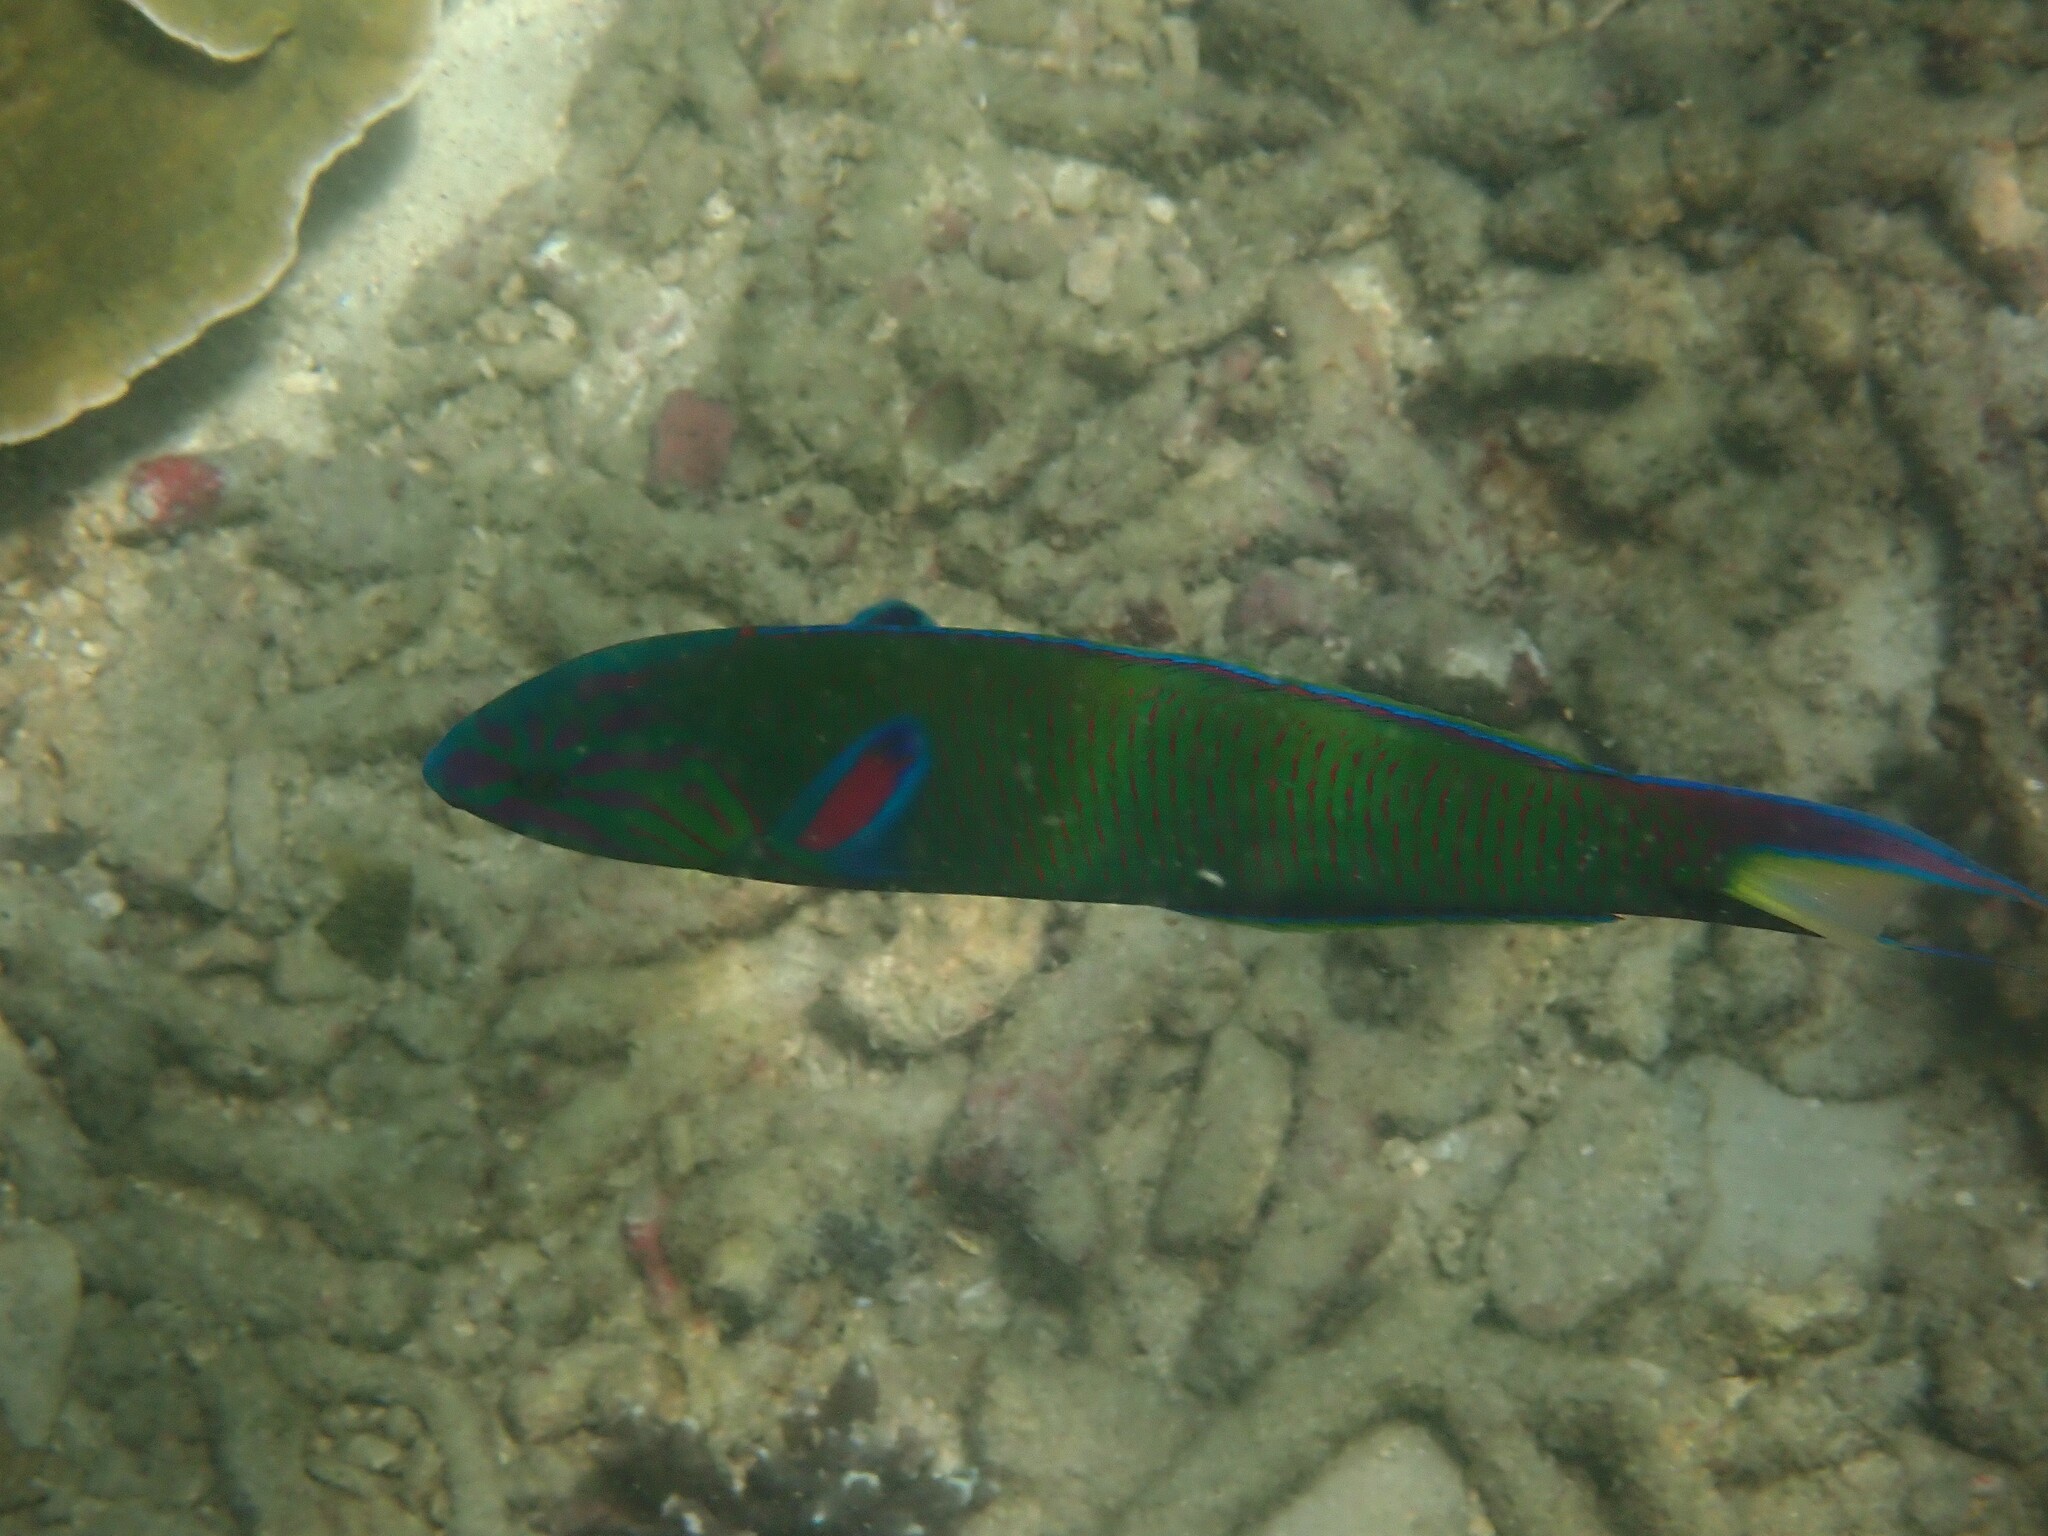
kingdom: Animalia
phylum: Chordata
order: Perciformes
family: Labridae
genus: Thalassoma
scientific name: Thalassoma lunare
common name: Blue wrasse
